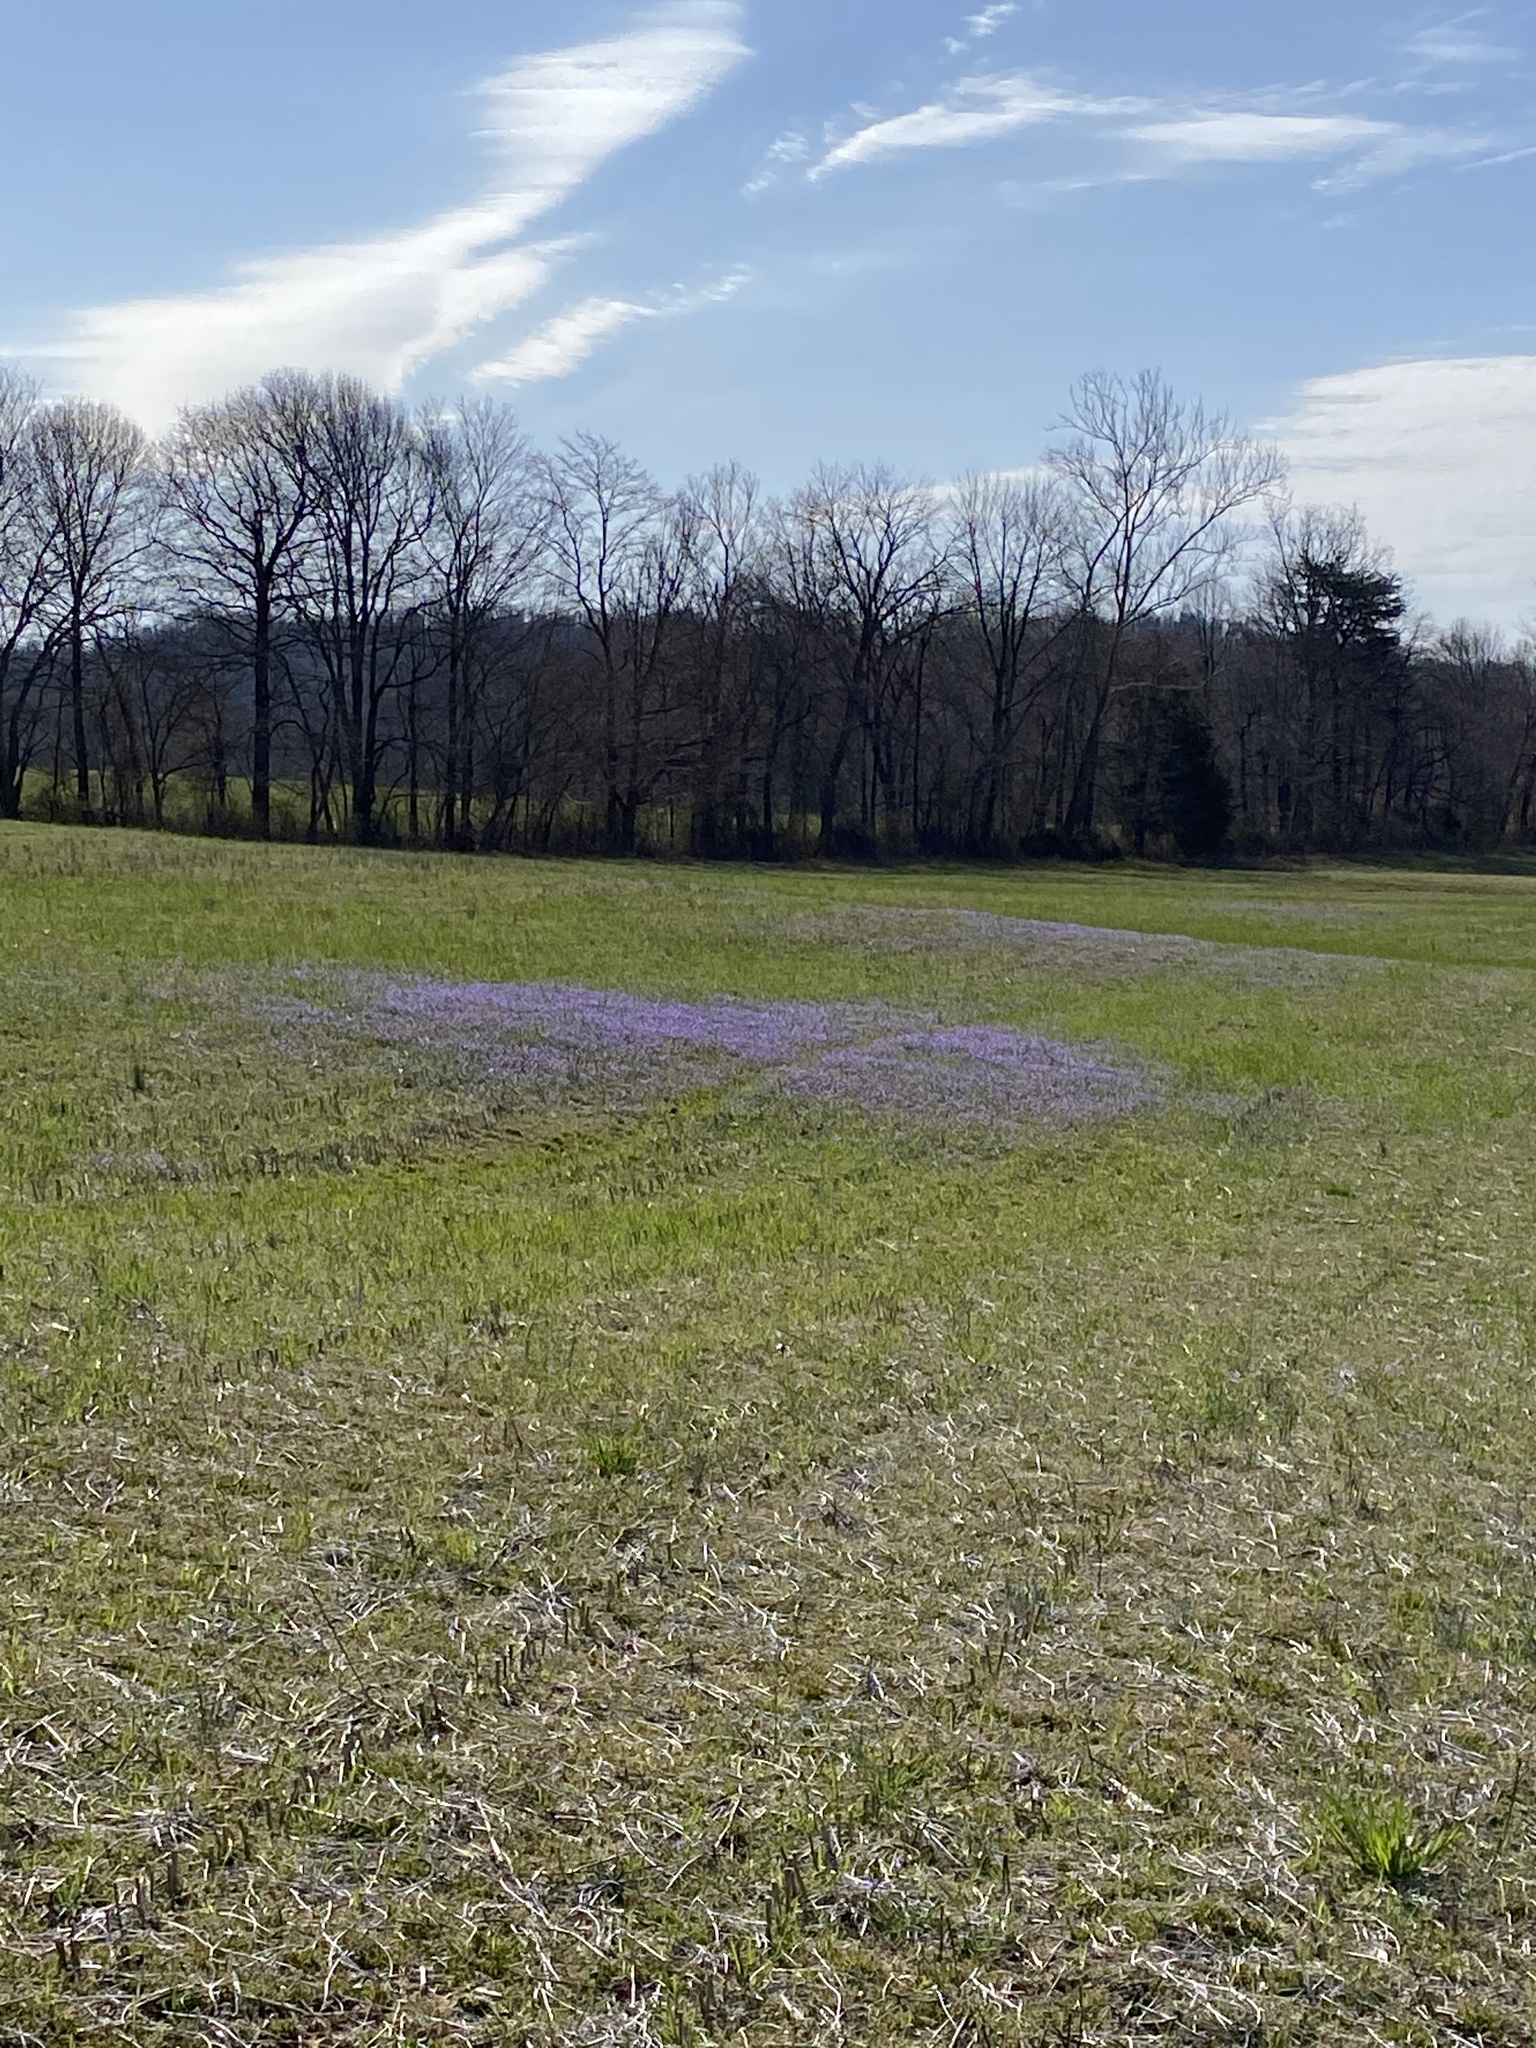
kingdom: Plantae
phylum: Tracheophyta
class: Magnoliopsida
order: Malpighiales
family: Violaceae
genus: Viola
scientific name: Viola rafinesquei
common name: American field pansy
